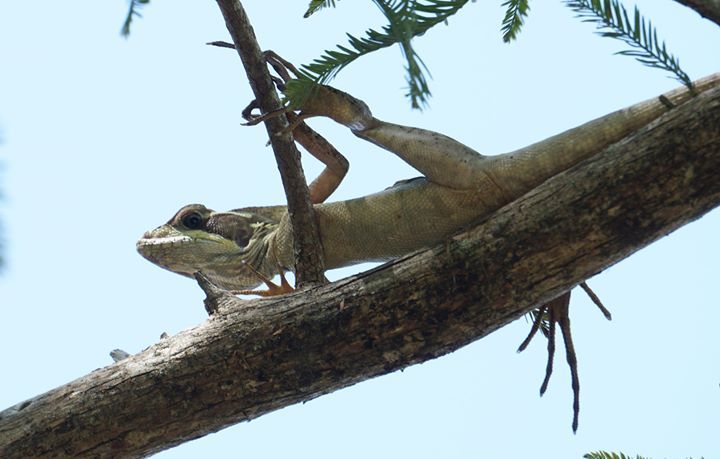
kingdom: Animalia
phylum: Chordata
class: Squamata
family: Corytophanidae
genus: Basiliscus
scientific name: Basiliscus vittatus
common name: Brown basilisk
